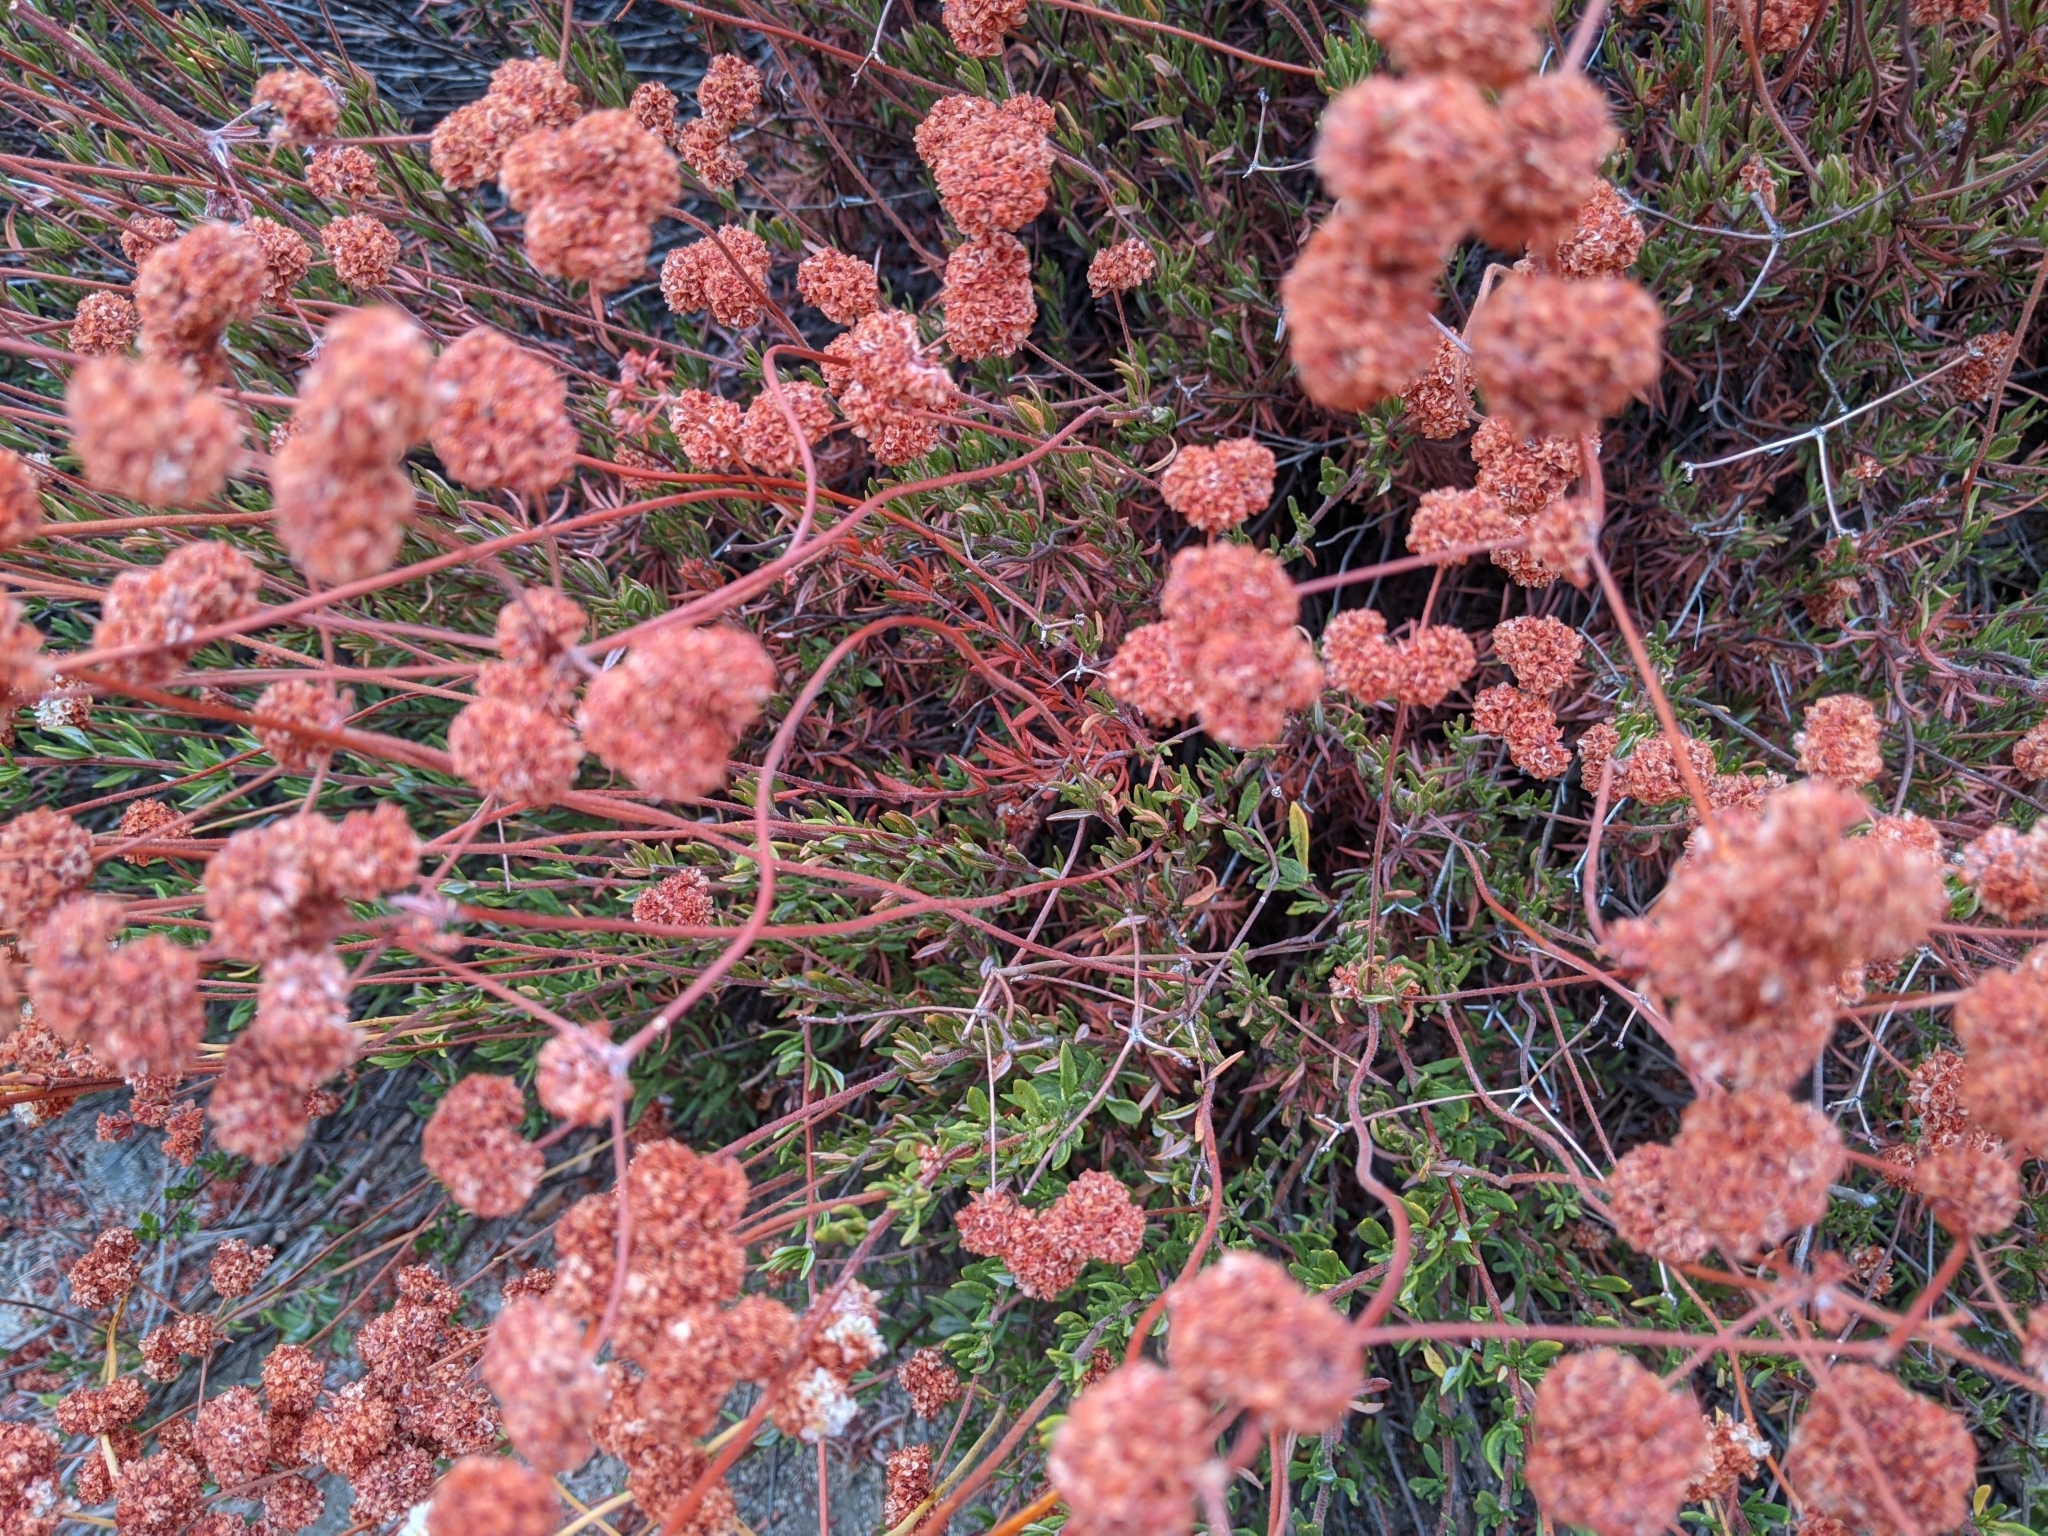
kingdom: Plantae
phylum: Tracheophyta
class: Magnoliopsida
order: Caryophyllales
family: Polygonaceae
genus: Eriogonum
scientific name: Eriogonum fasciculatum
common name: California wild buckwheat
